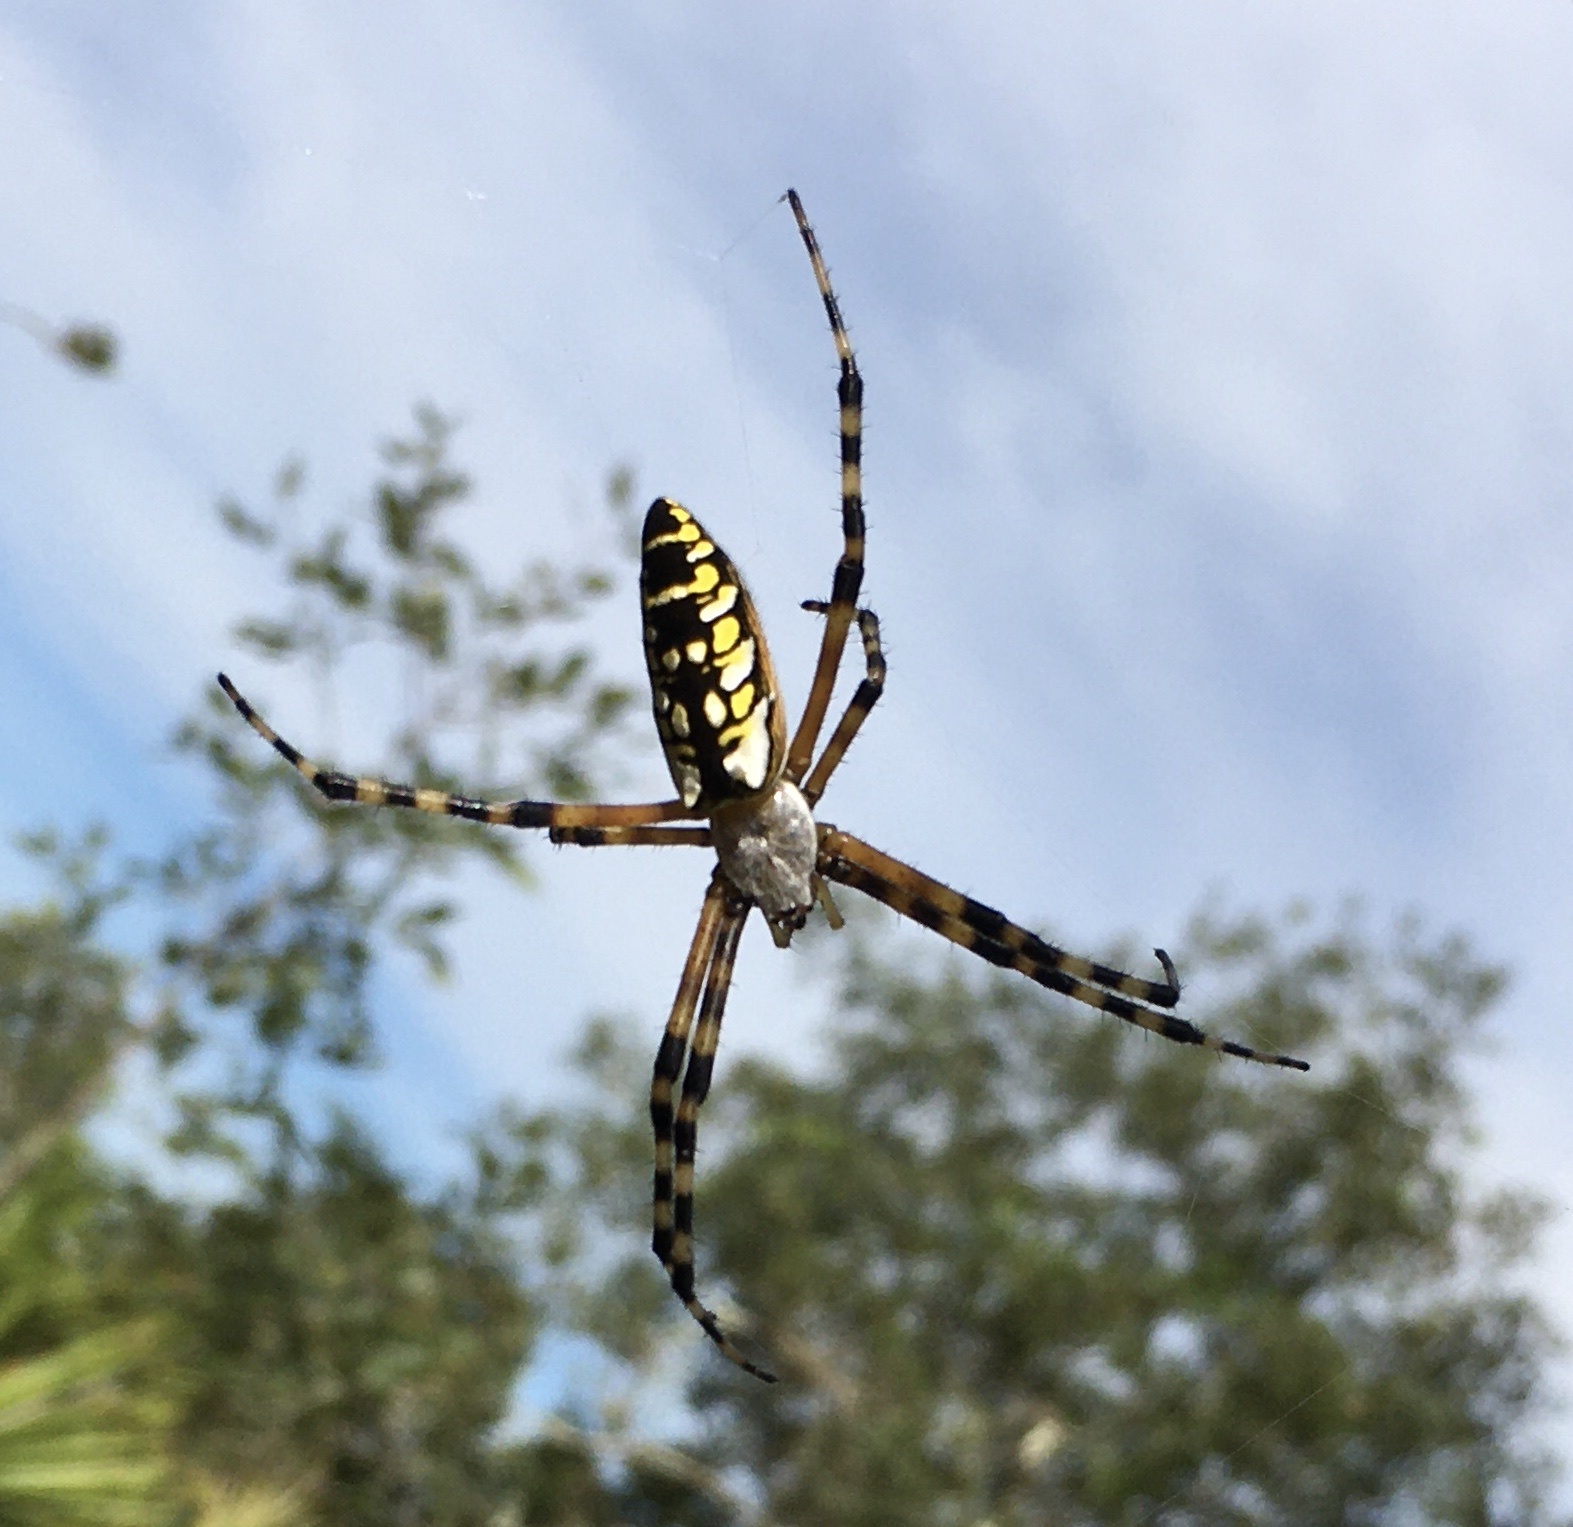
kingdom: Animalia
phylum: Arthropoda
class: Arachnida
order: Araneae
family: Araneidae
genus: Argiope
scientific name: Argiope aurantia
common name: Orb weavers
